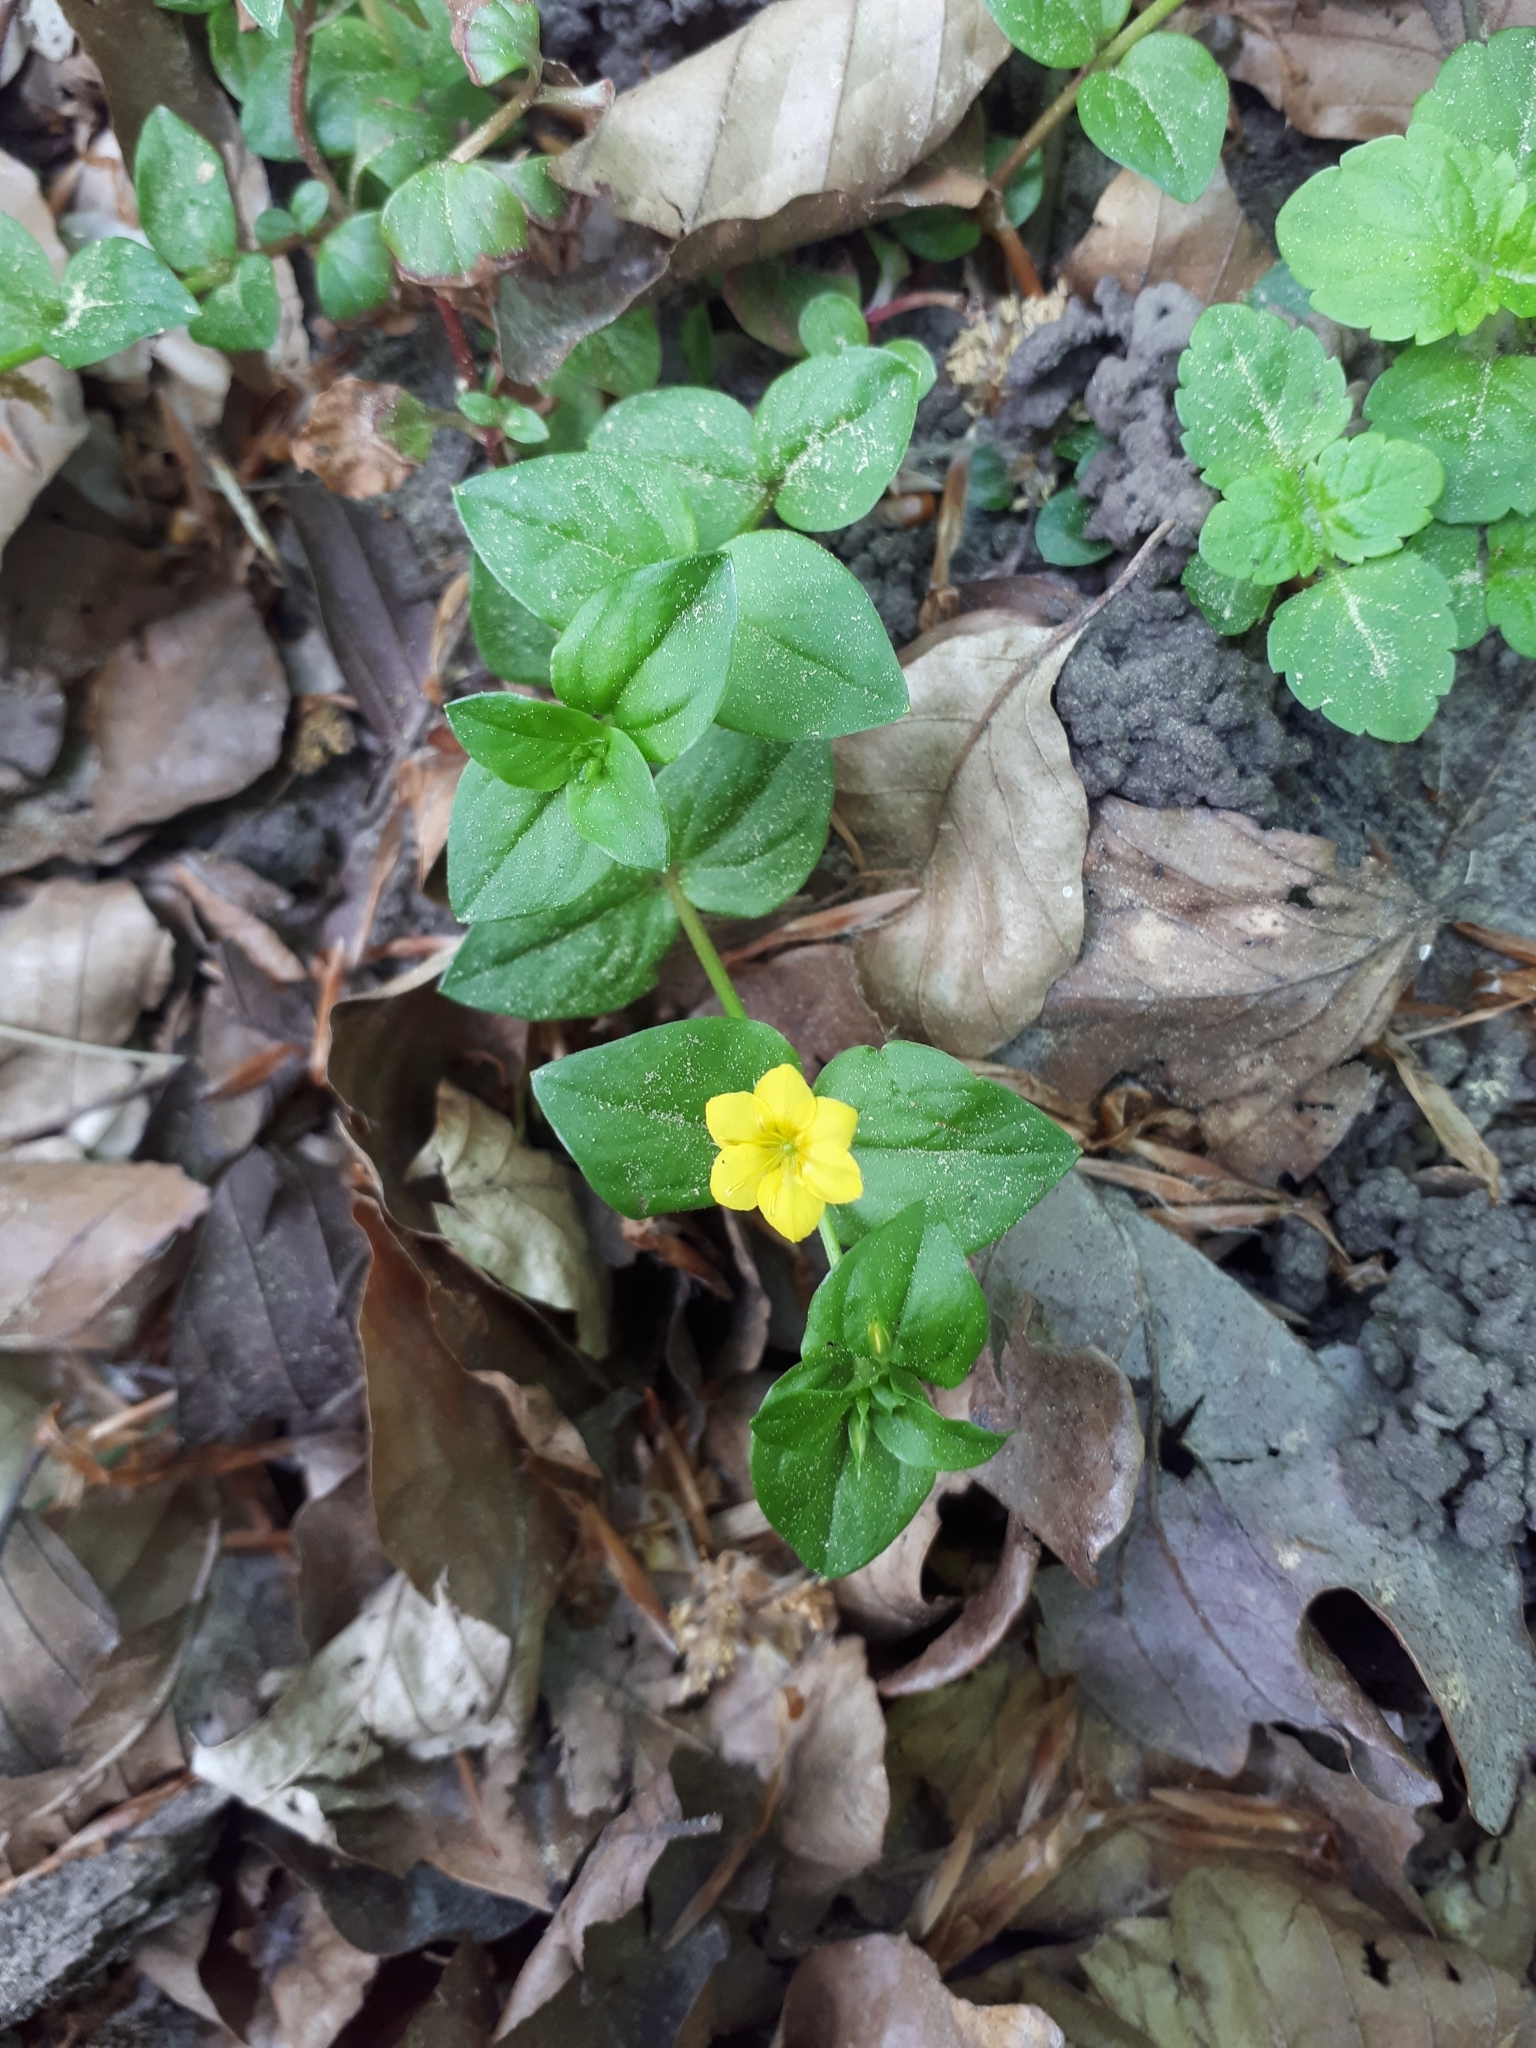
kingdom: Plantae
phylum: Tracheophyta
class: Magnoliopsida
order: Ericales
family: Primulaceae
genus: Lysimachia
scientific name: Lysimachia nemorum
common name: Yellow pimpernel
